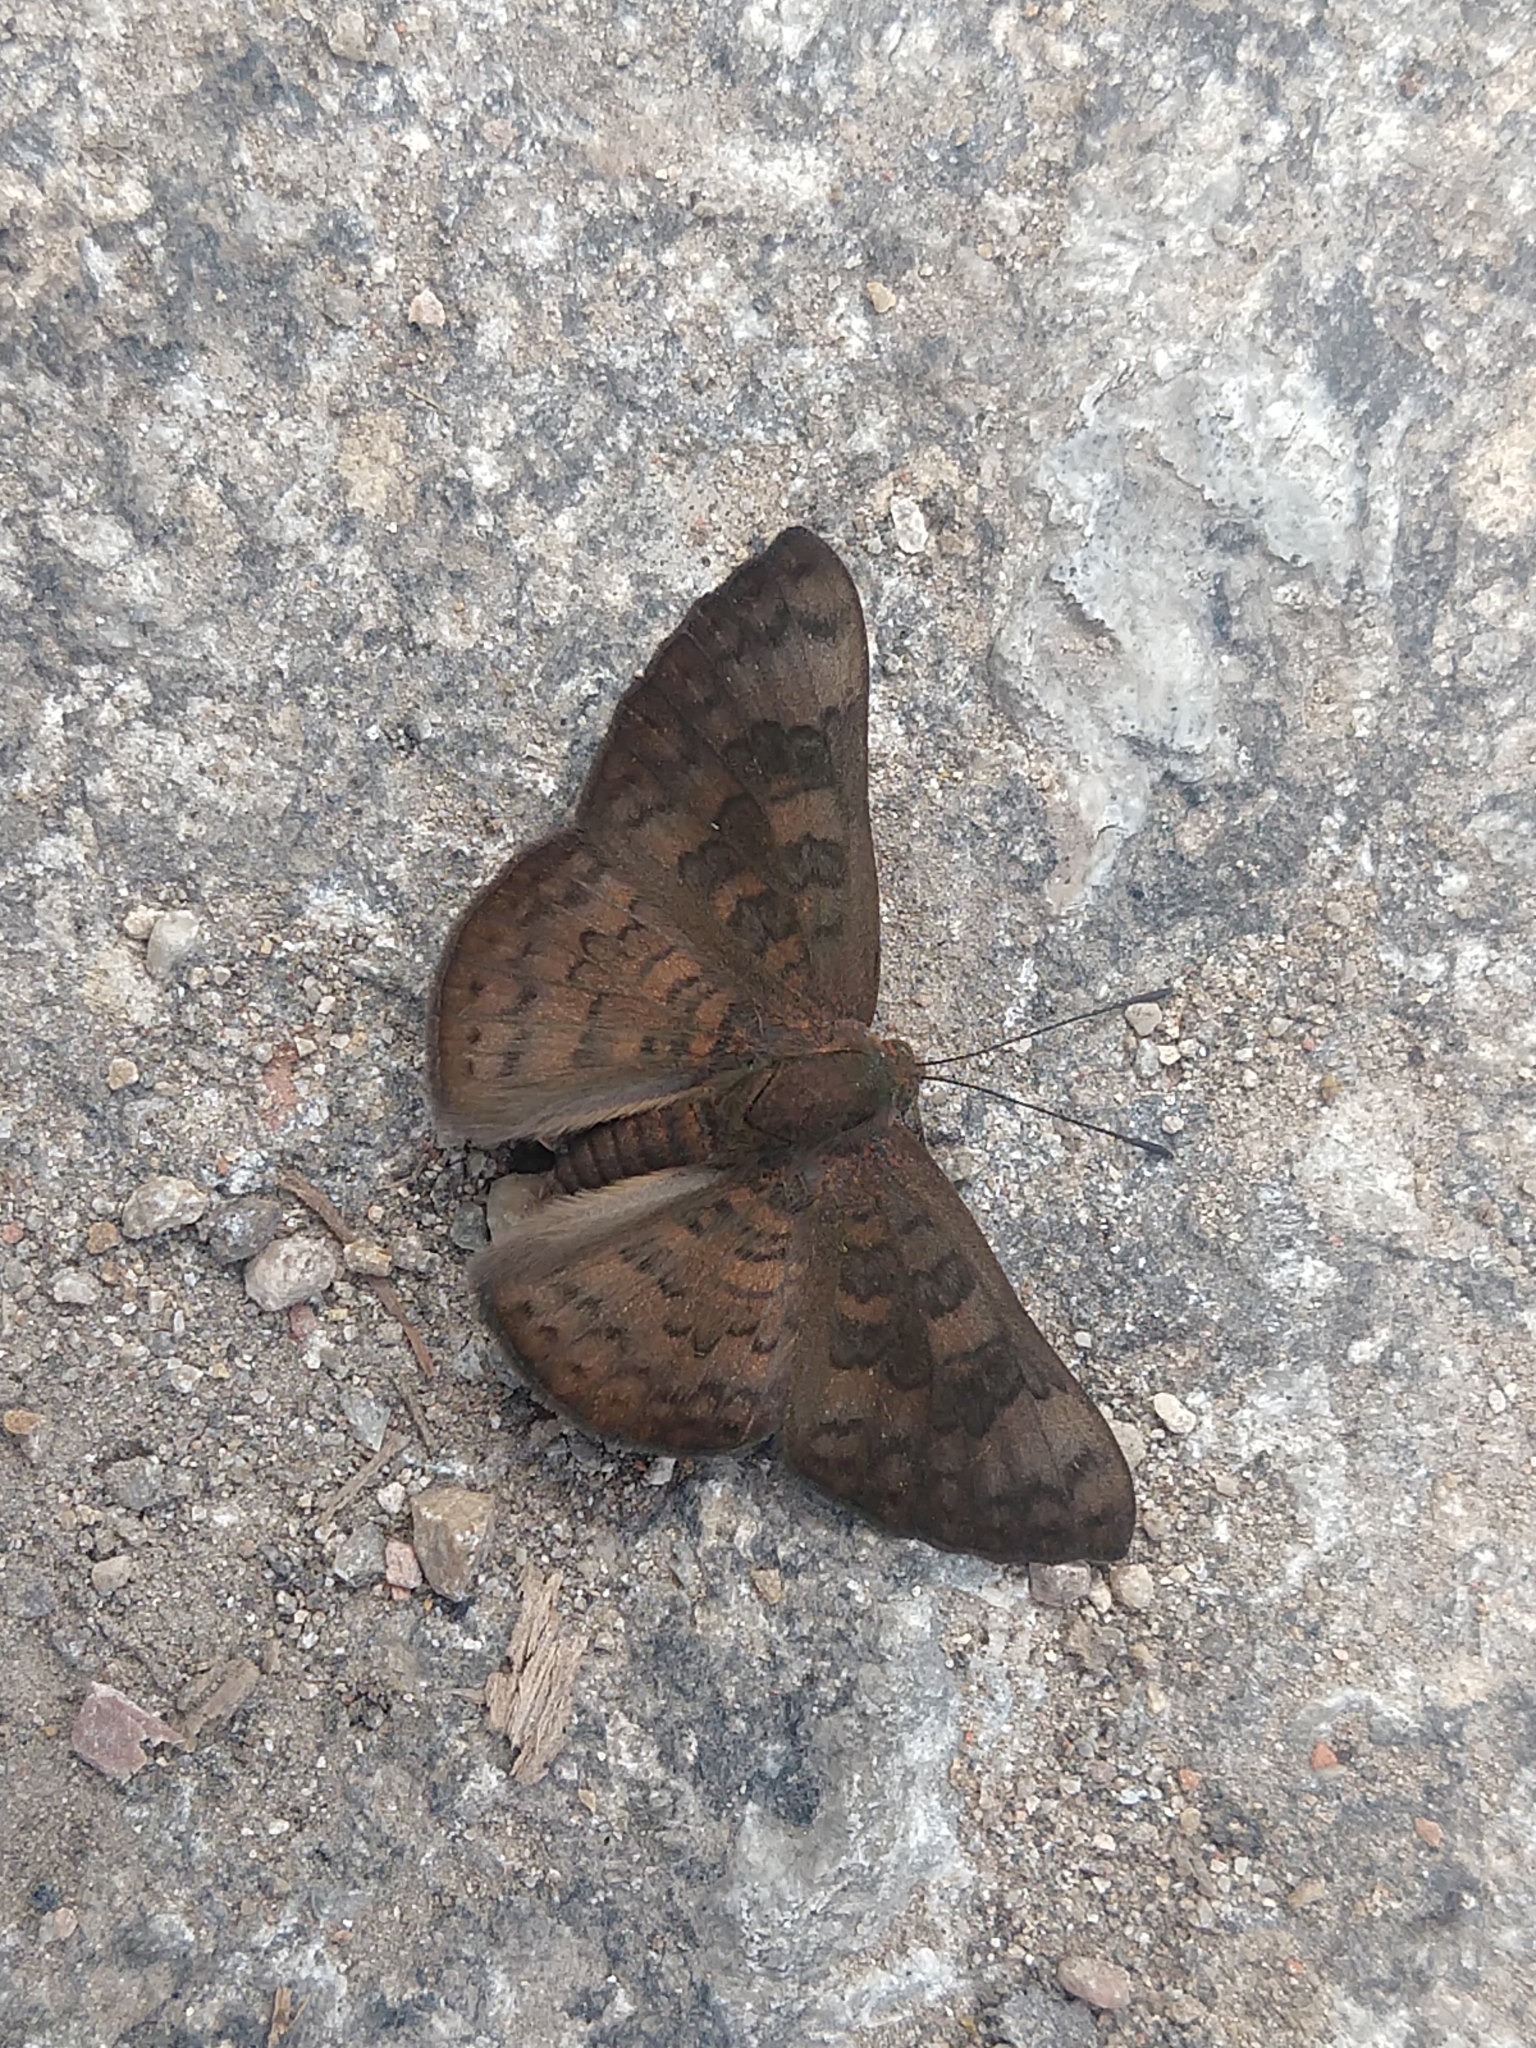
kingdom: Animalia
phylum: Arthropoda
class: Insecta
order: Lepidoptera
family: Lycaenidae
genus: Emesis
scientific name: Emesis tenedia
